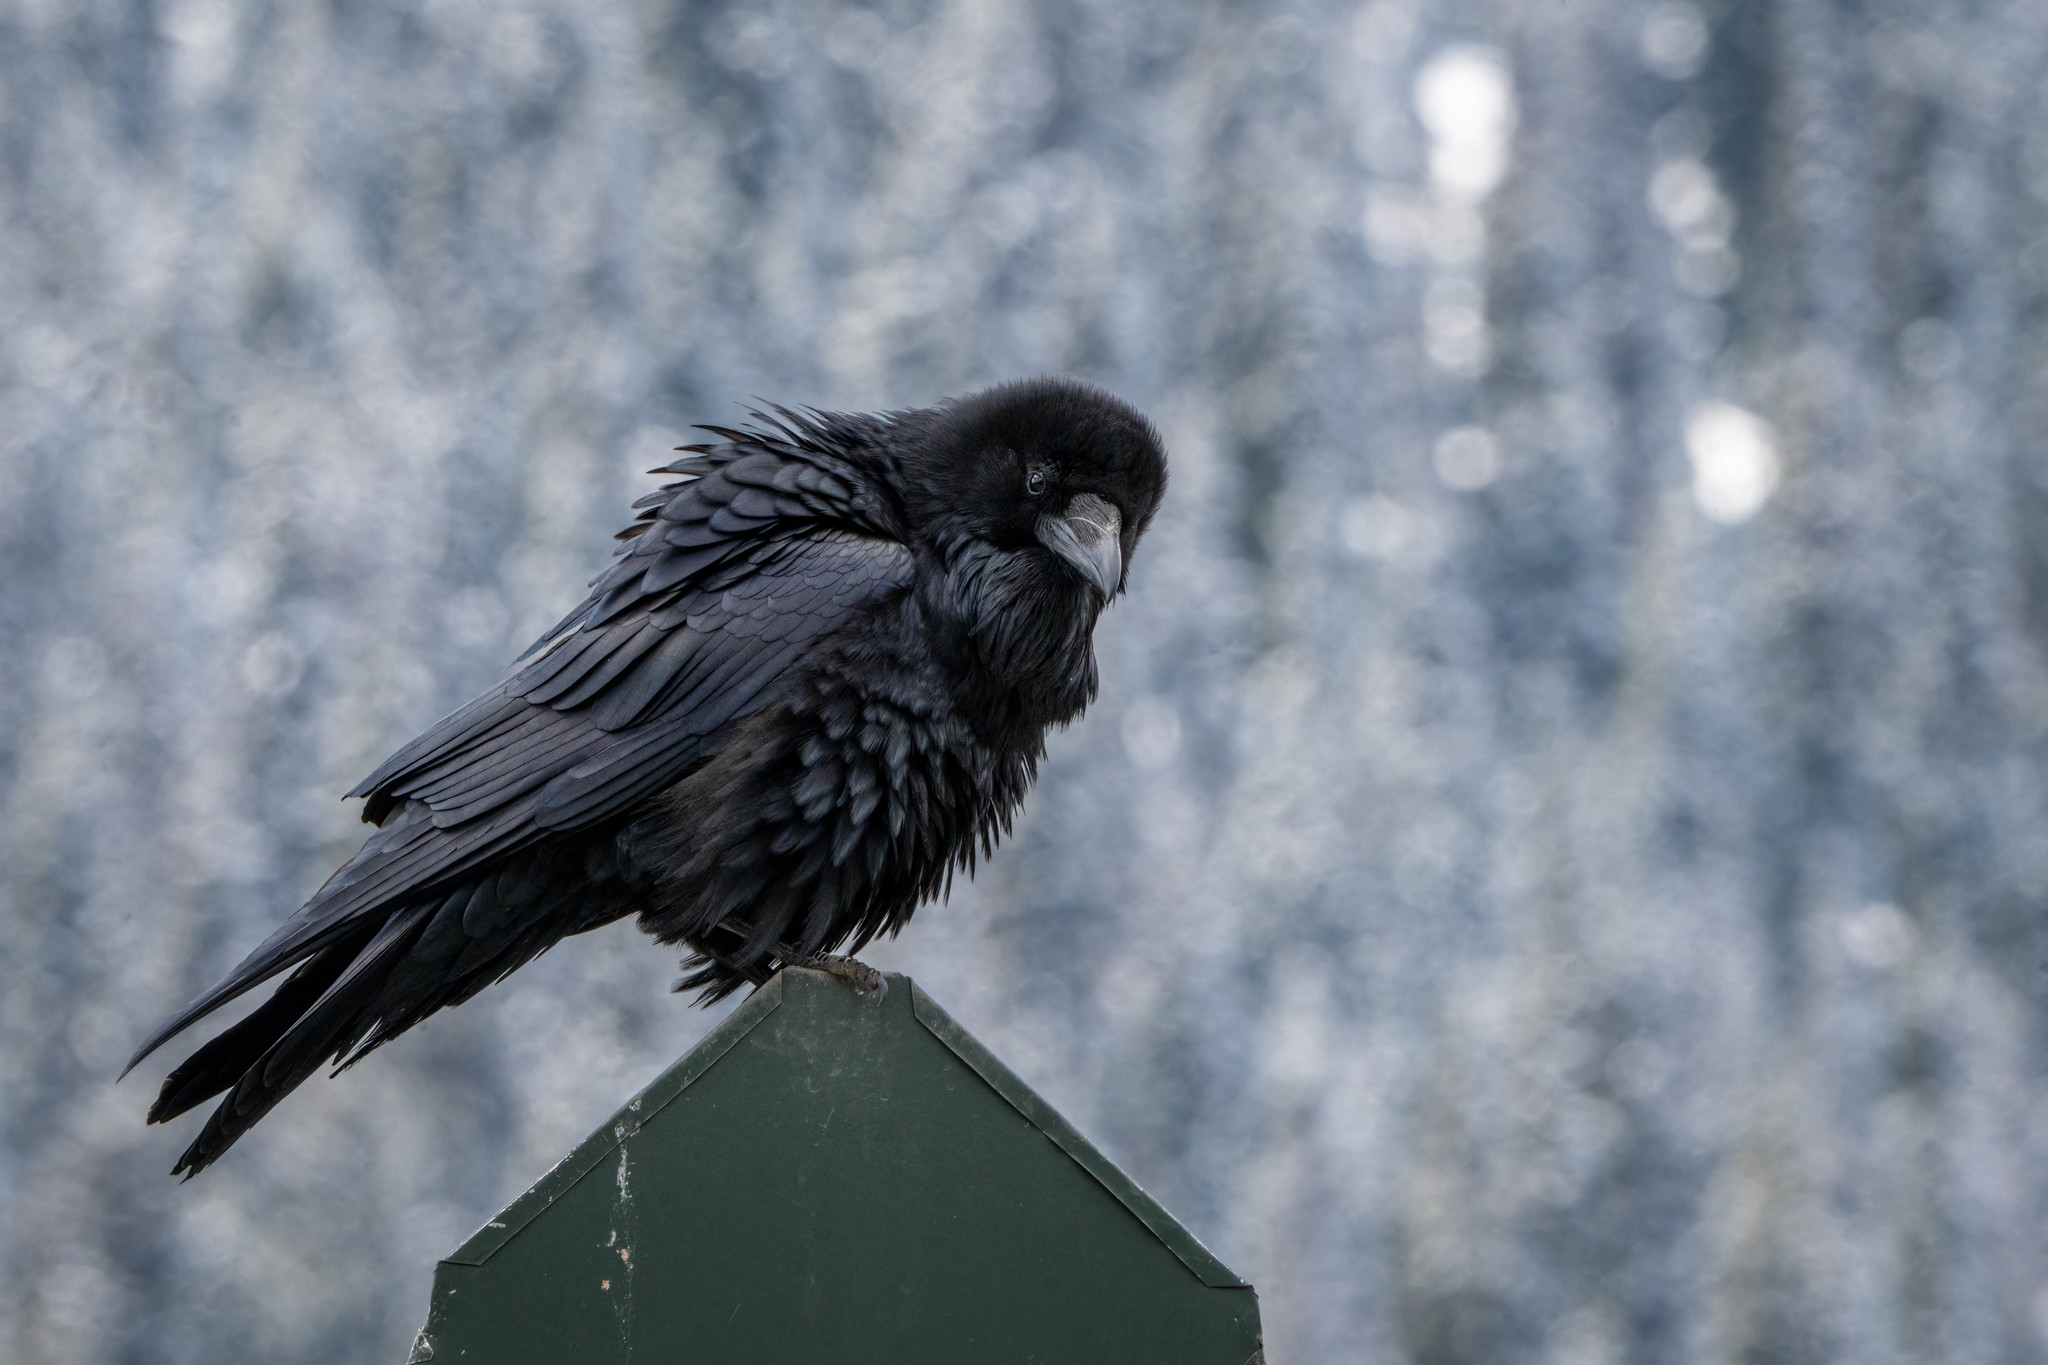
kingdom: Animalia
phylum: Chordata
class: Aves
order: Passeriformes
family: Corvidae
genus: Corvus
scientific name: Corvus corax
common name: Common raven
